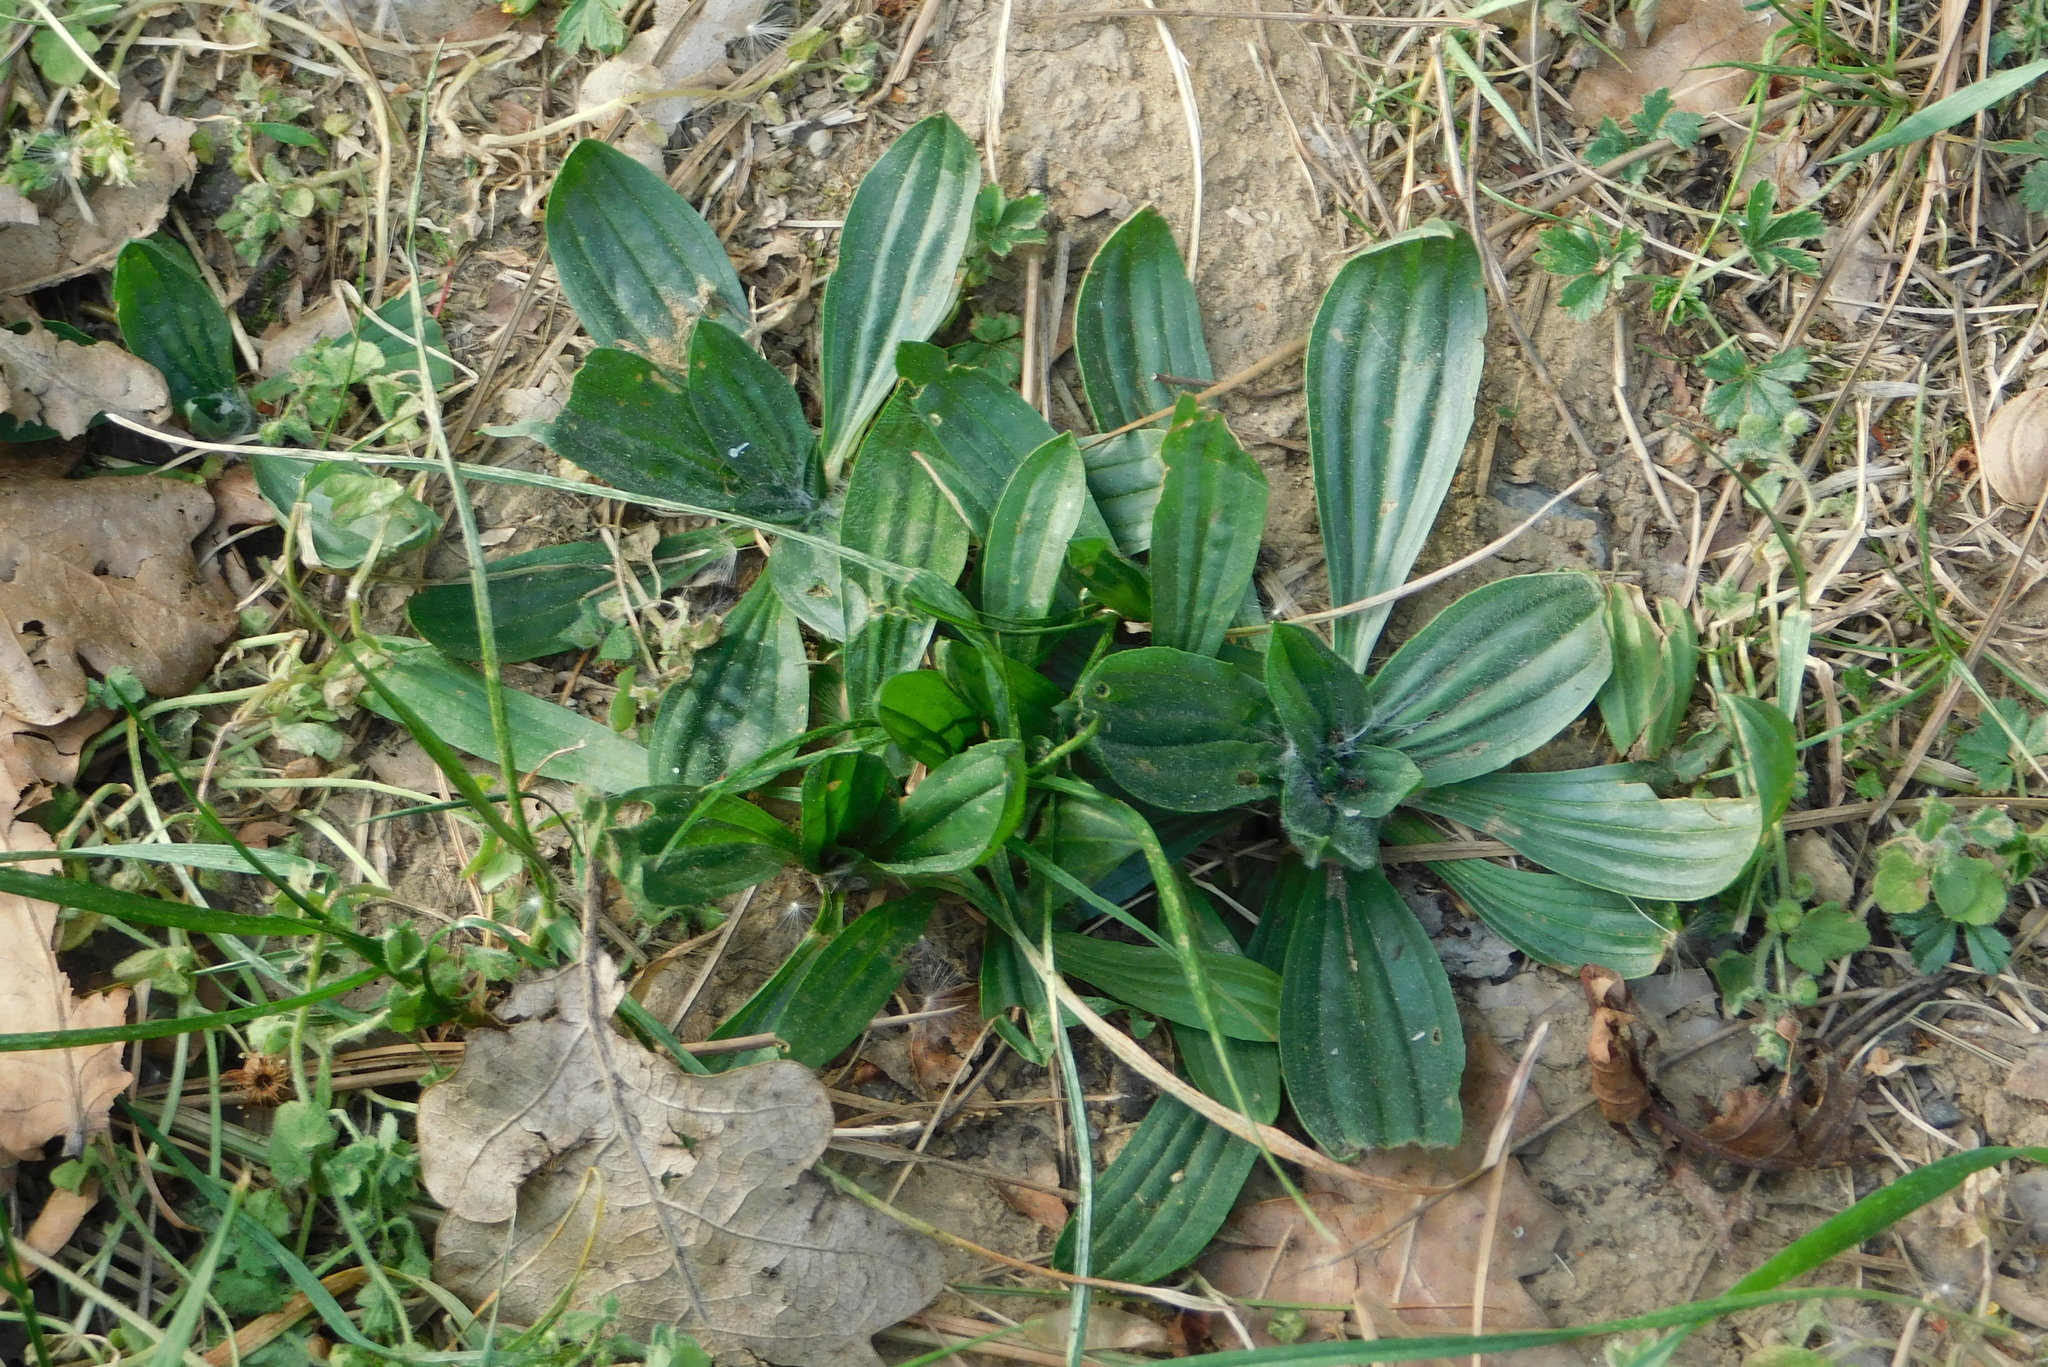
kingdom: Plantae
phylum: Tracheophyta
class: Magnoliopsida
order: Lamiales
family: Plantaginaceae
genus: Plantago
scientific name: Plantago media
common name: Hoary plantain
